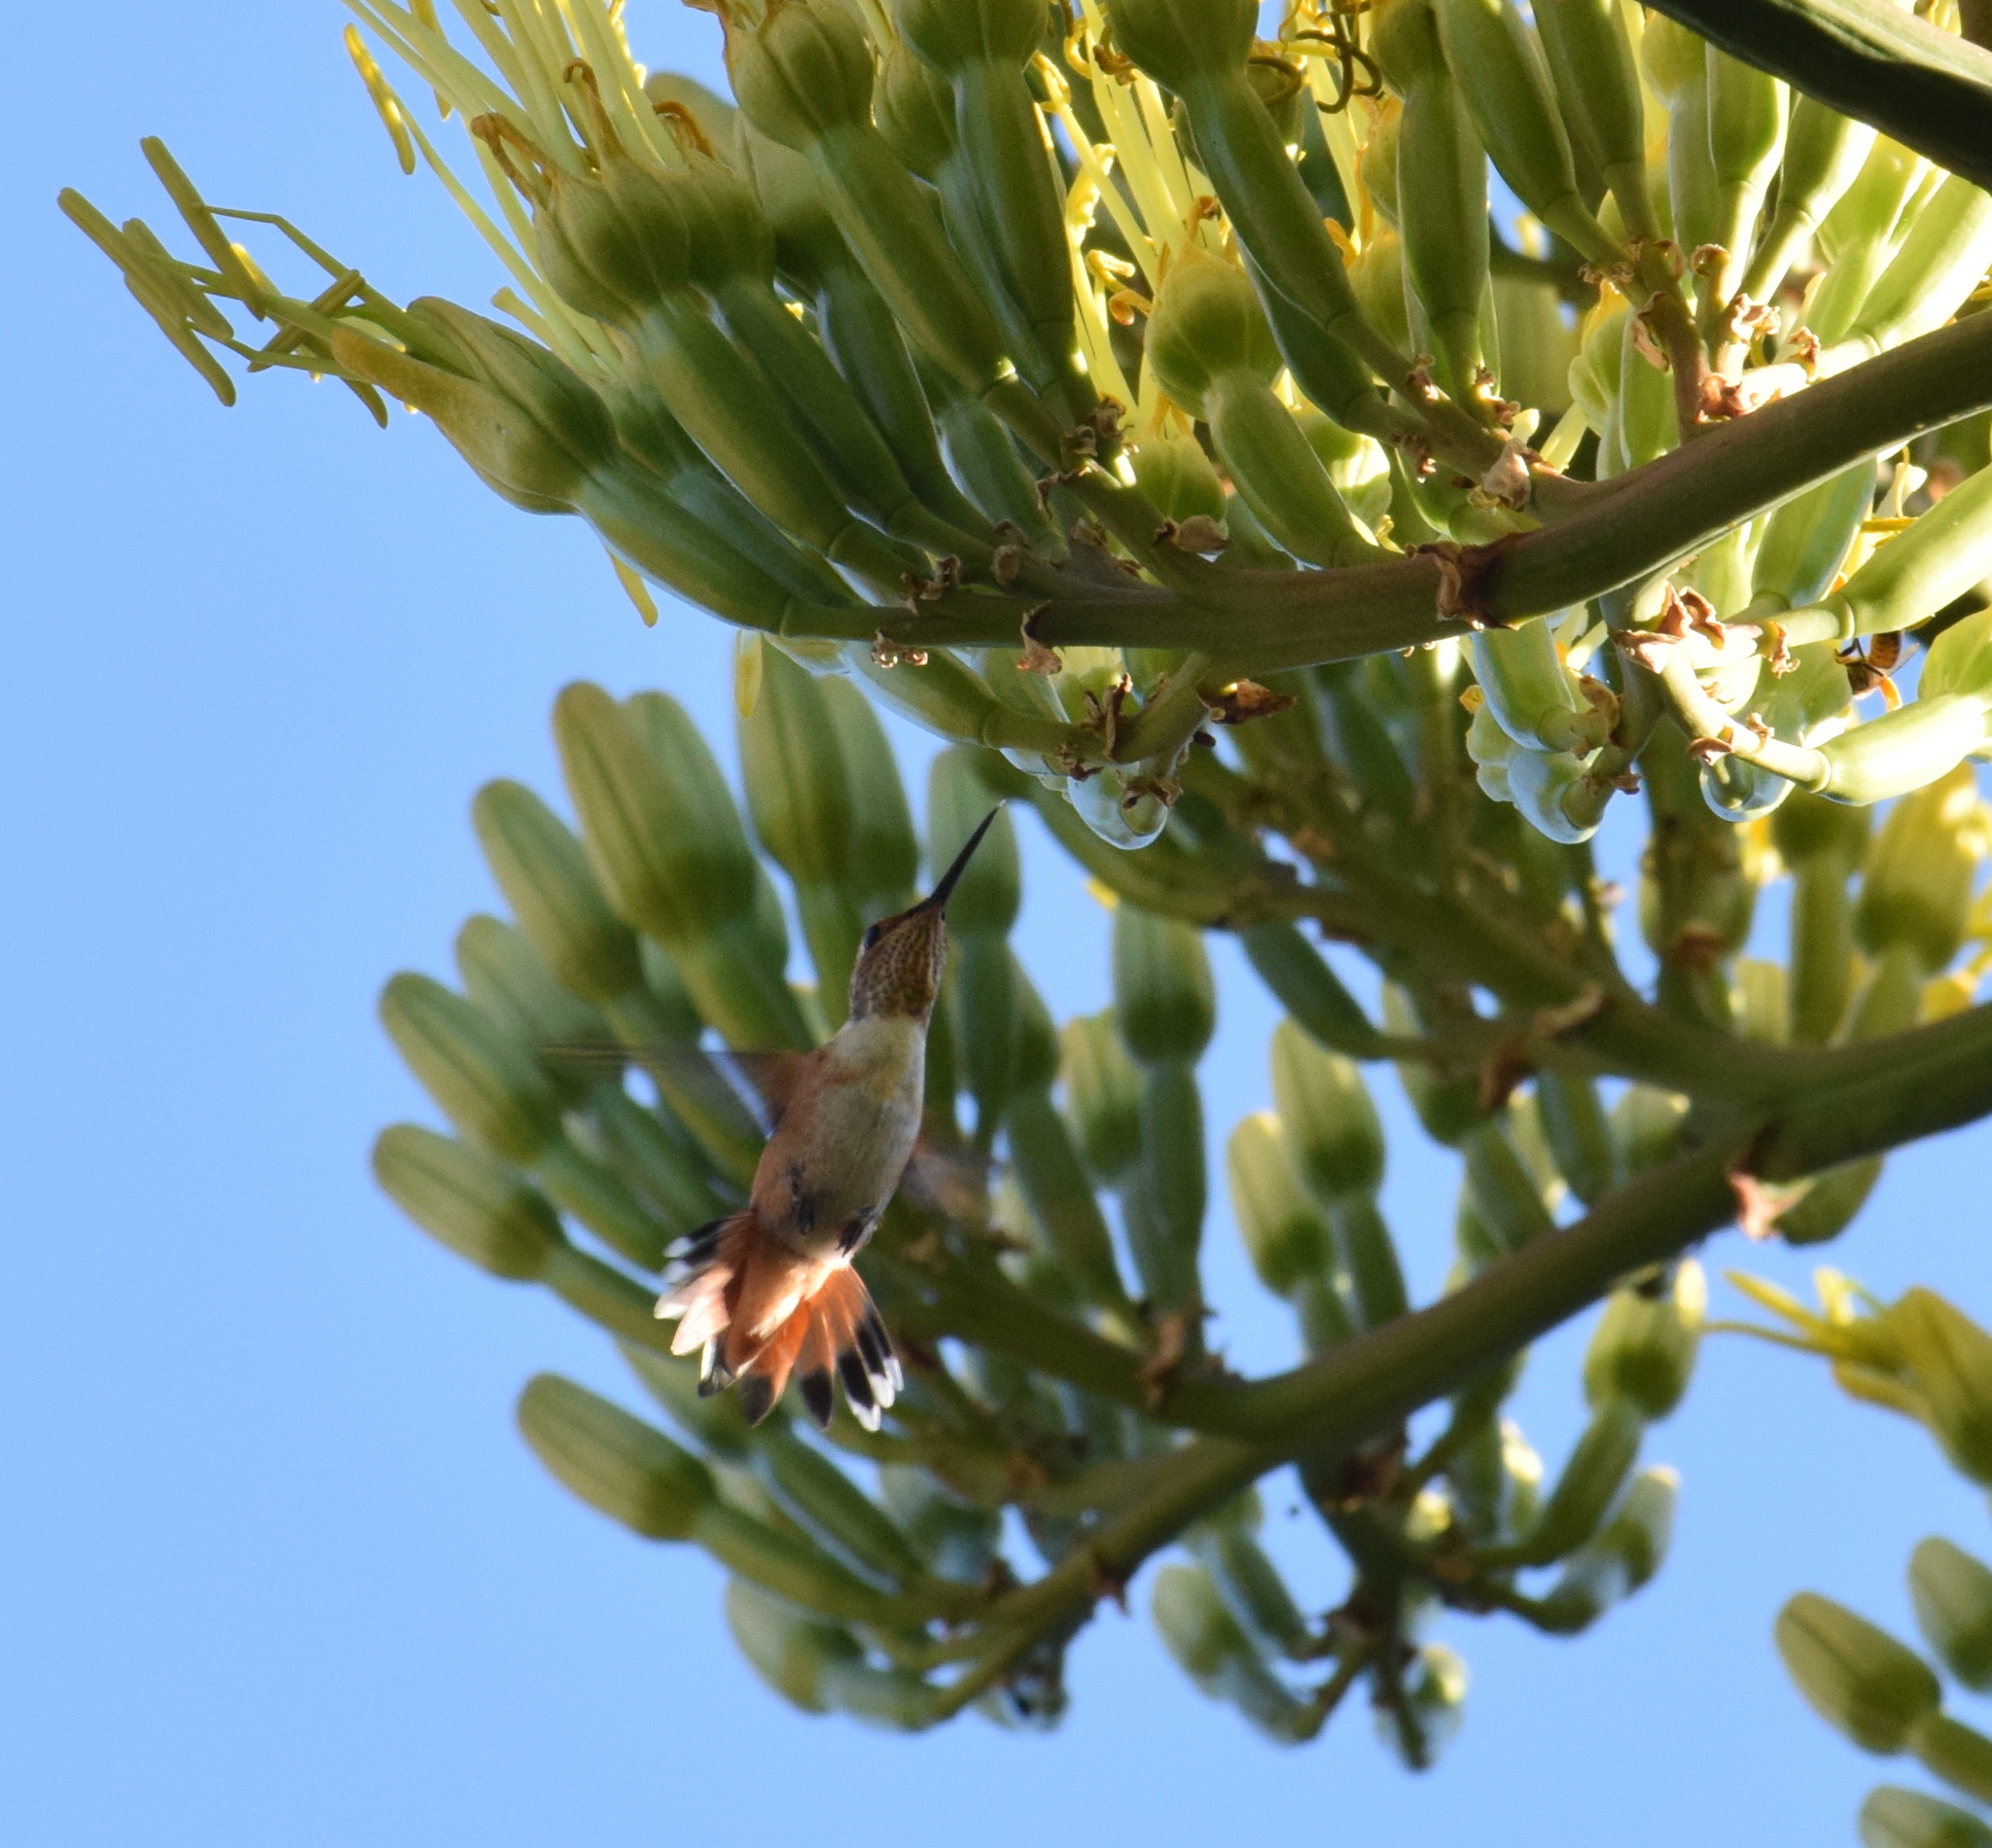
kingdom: Animalia
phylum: Chordata
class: Aves
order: Apodiformes
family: Trochilidae
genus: Selasphorus
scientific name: Selasphorus sasin
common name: Allen's hummingbird
